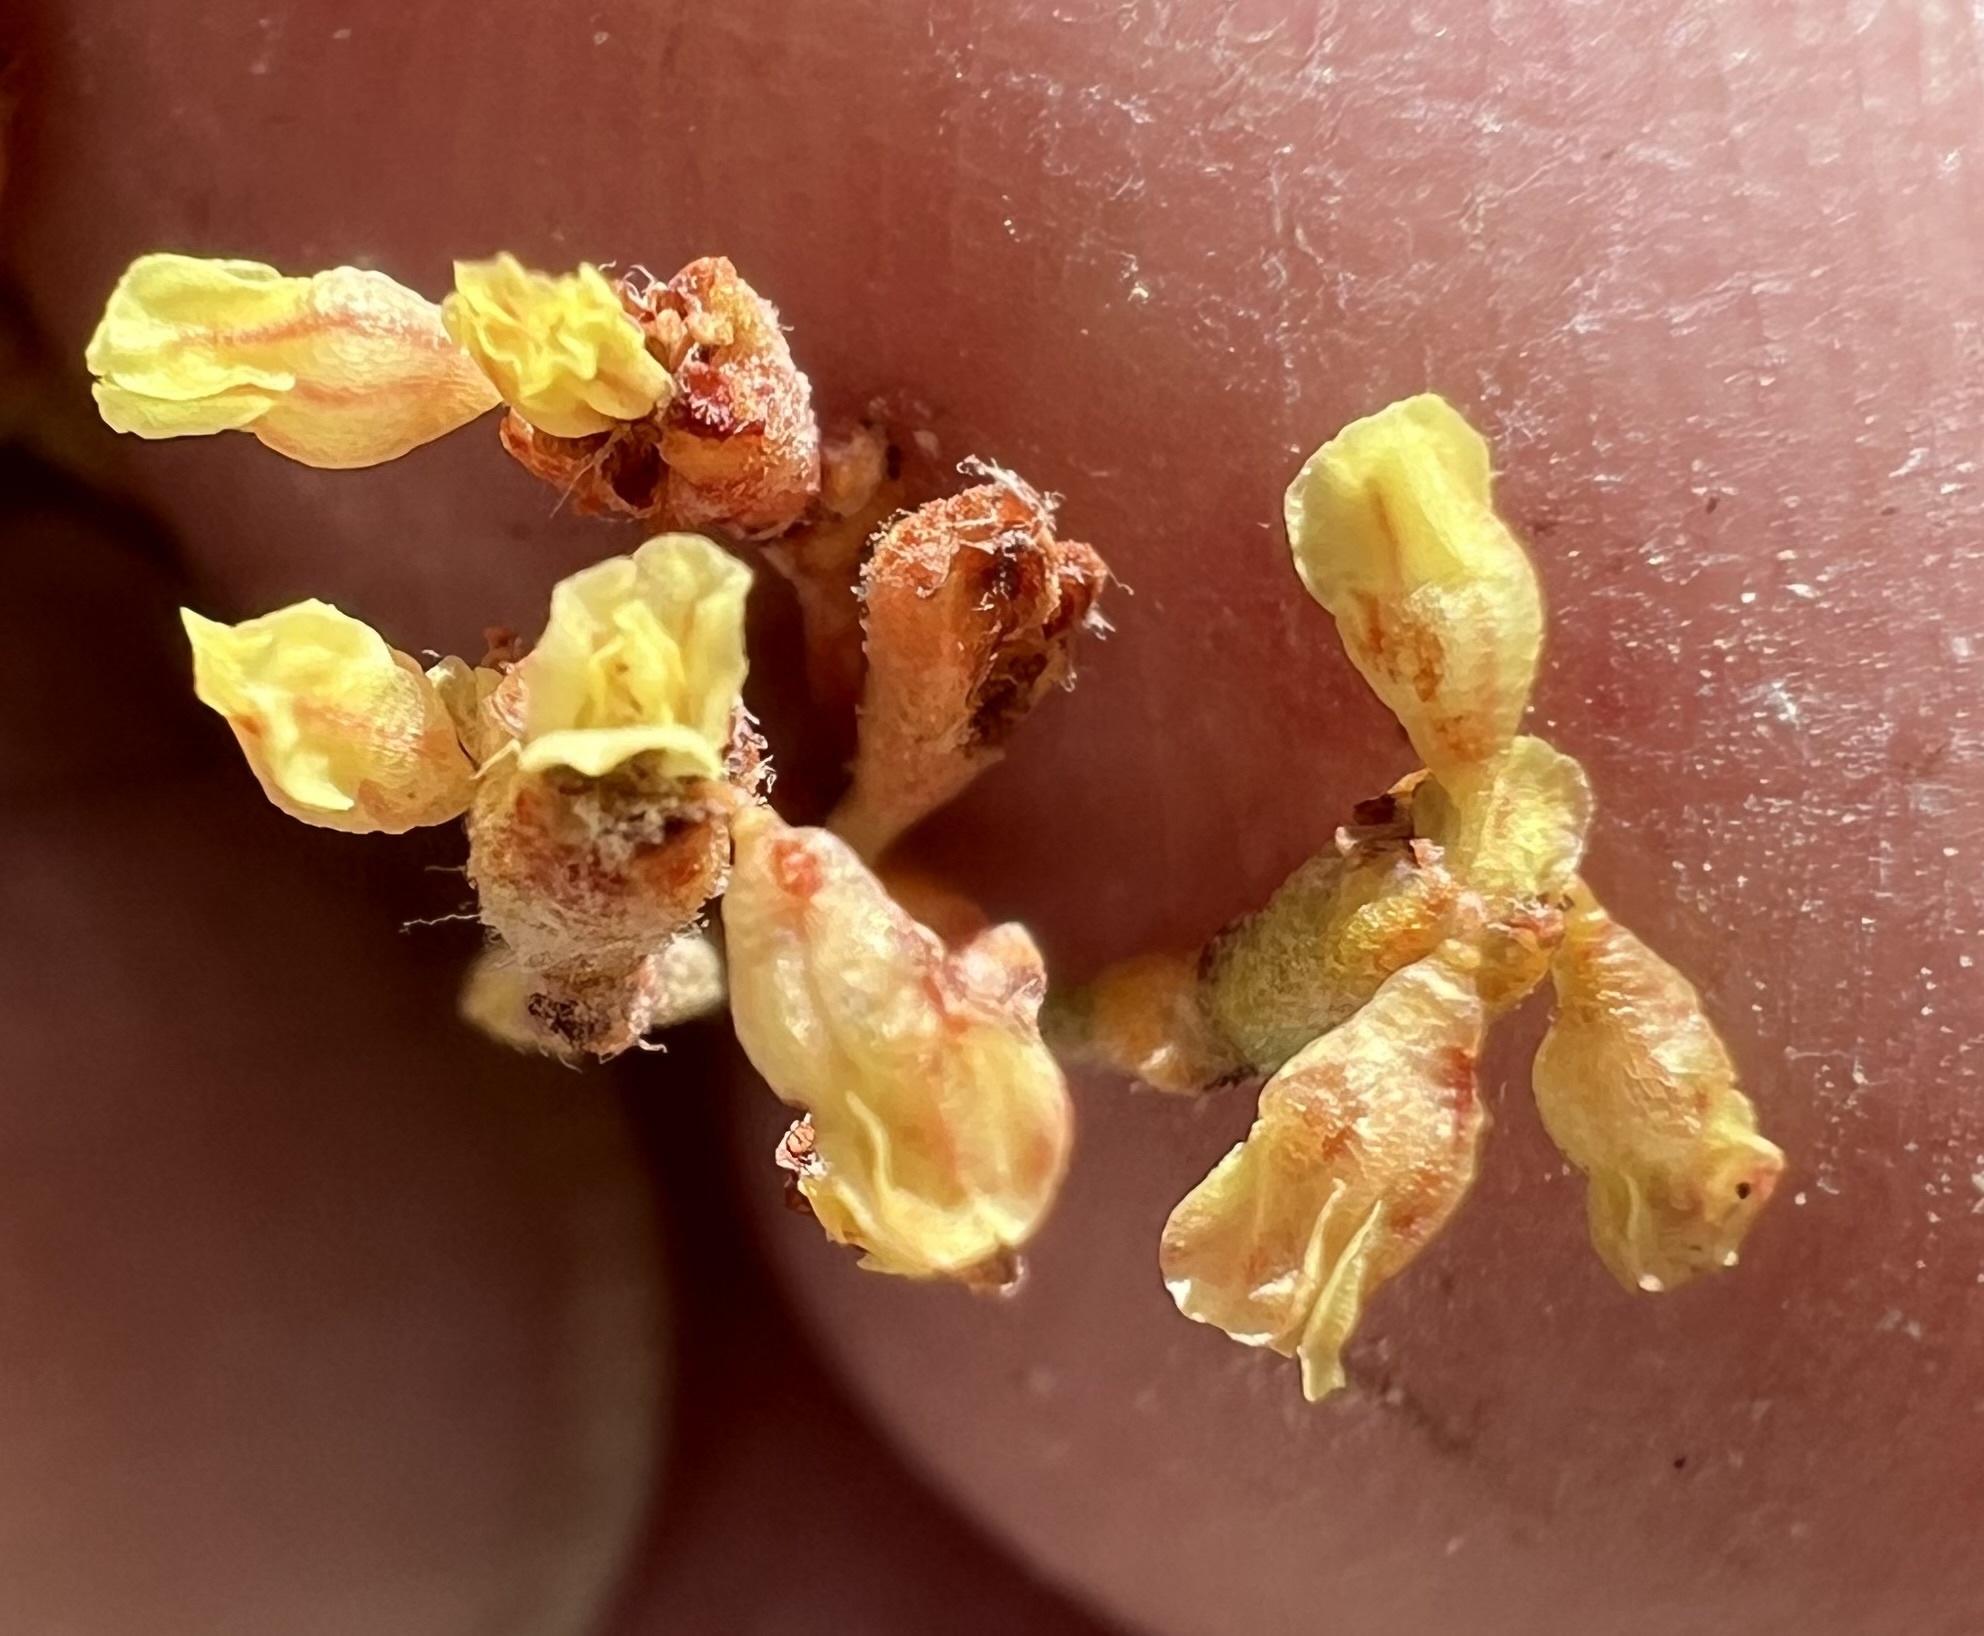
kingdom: Plantae
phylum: Tracheophyta
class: Magnoliopsida
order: Caryophyllales
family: Polygonaceae
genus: Eriogonum
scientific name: Eriogonum microtheca
